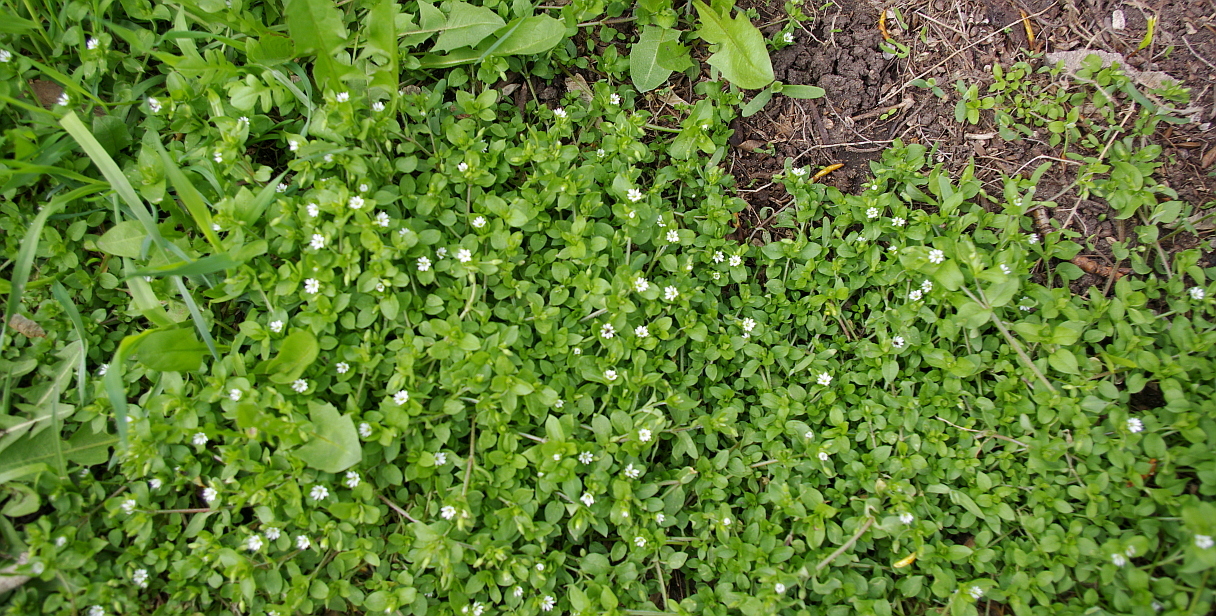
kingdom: Plantae
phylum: Tracheophyta
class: Magnoliopsida
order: Caryophyllales
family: Caryophyllaceae
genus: Stellaria
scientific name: Stellaria media
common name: Common chickweed
